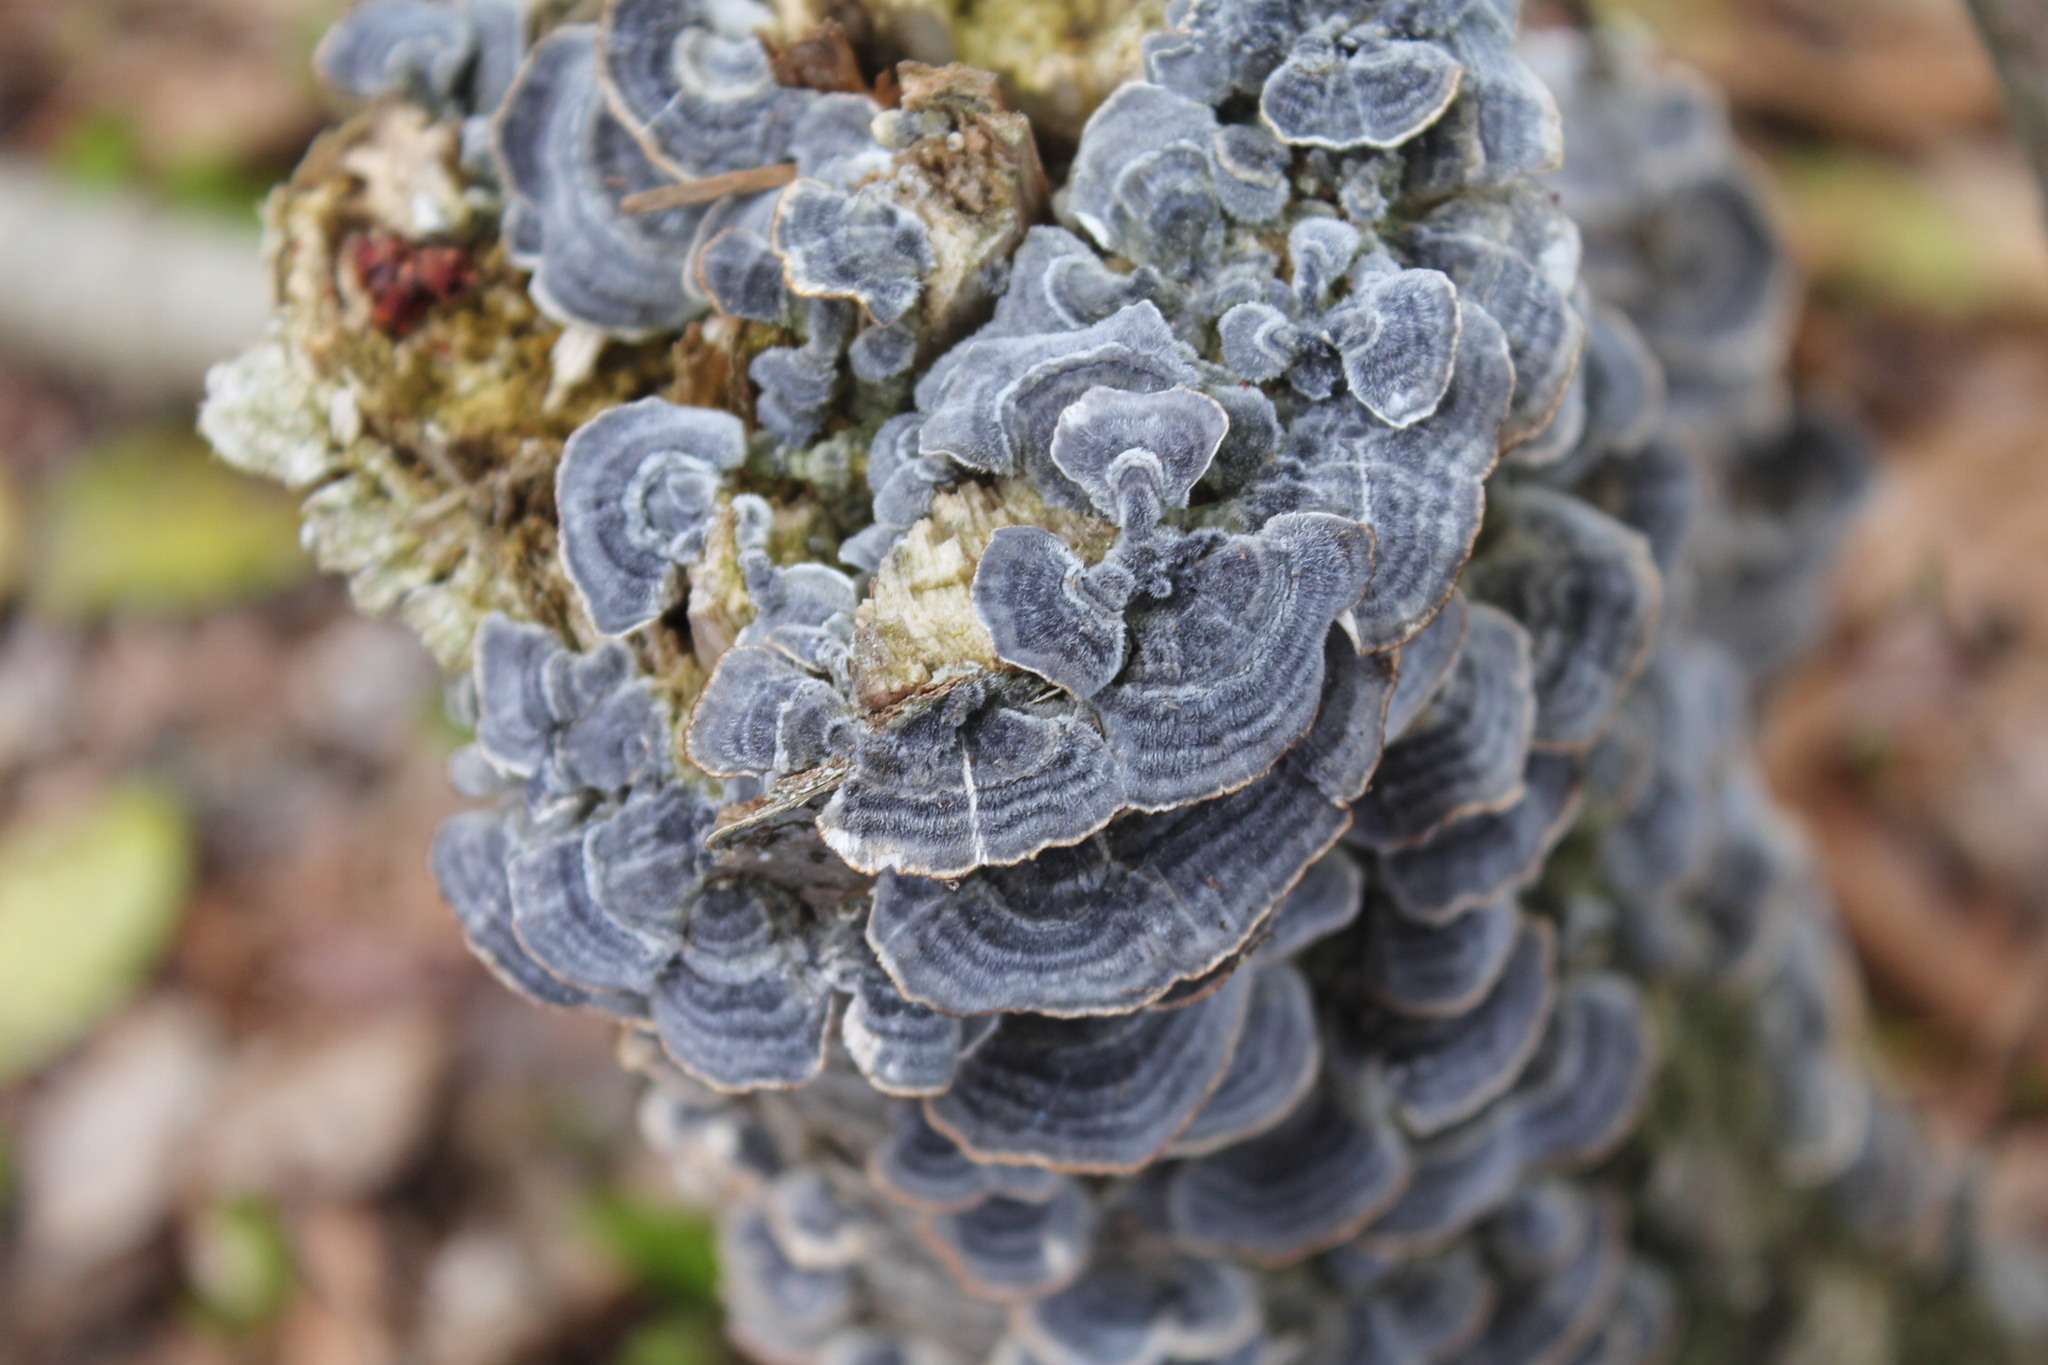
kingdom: Fungi
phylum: Basidiomycota
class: Agaricomycetes
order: Polyporales
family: Polyporaceae
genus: Trametes
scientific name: Trametes versicolor
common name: Turkeytail
